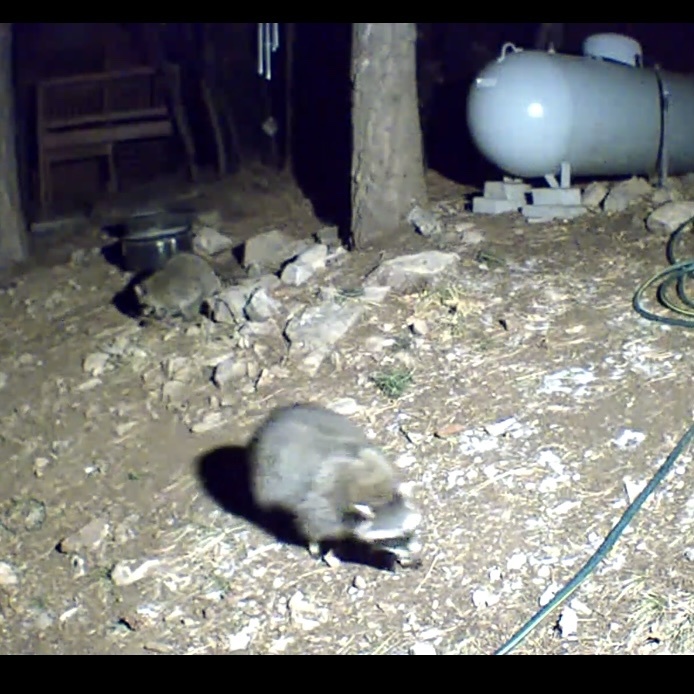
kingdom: Animalia
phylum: Chordata
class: Mammalia
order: Carnivora
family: Procyonidae
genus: Procyon
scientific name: Procyon lotor
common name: Raccoon
